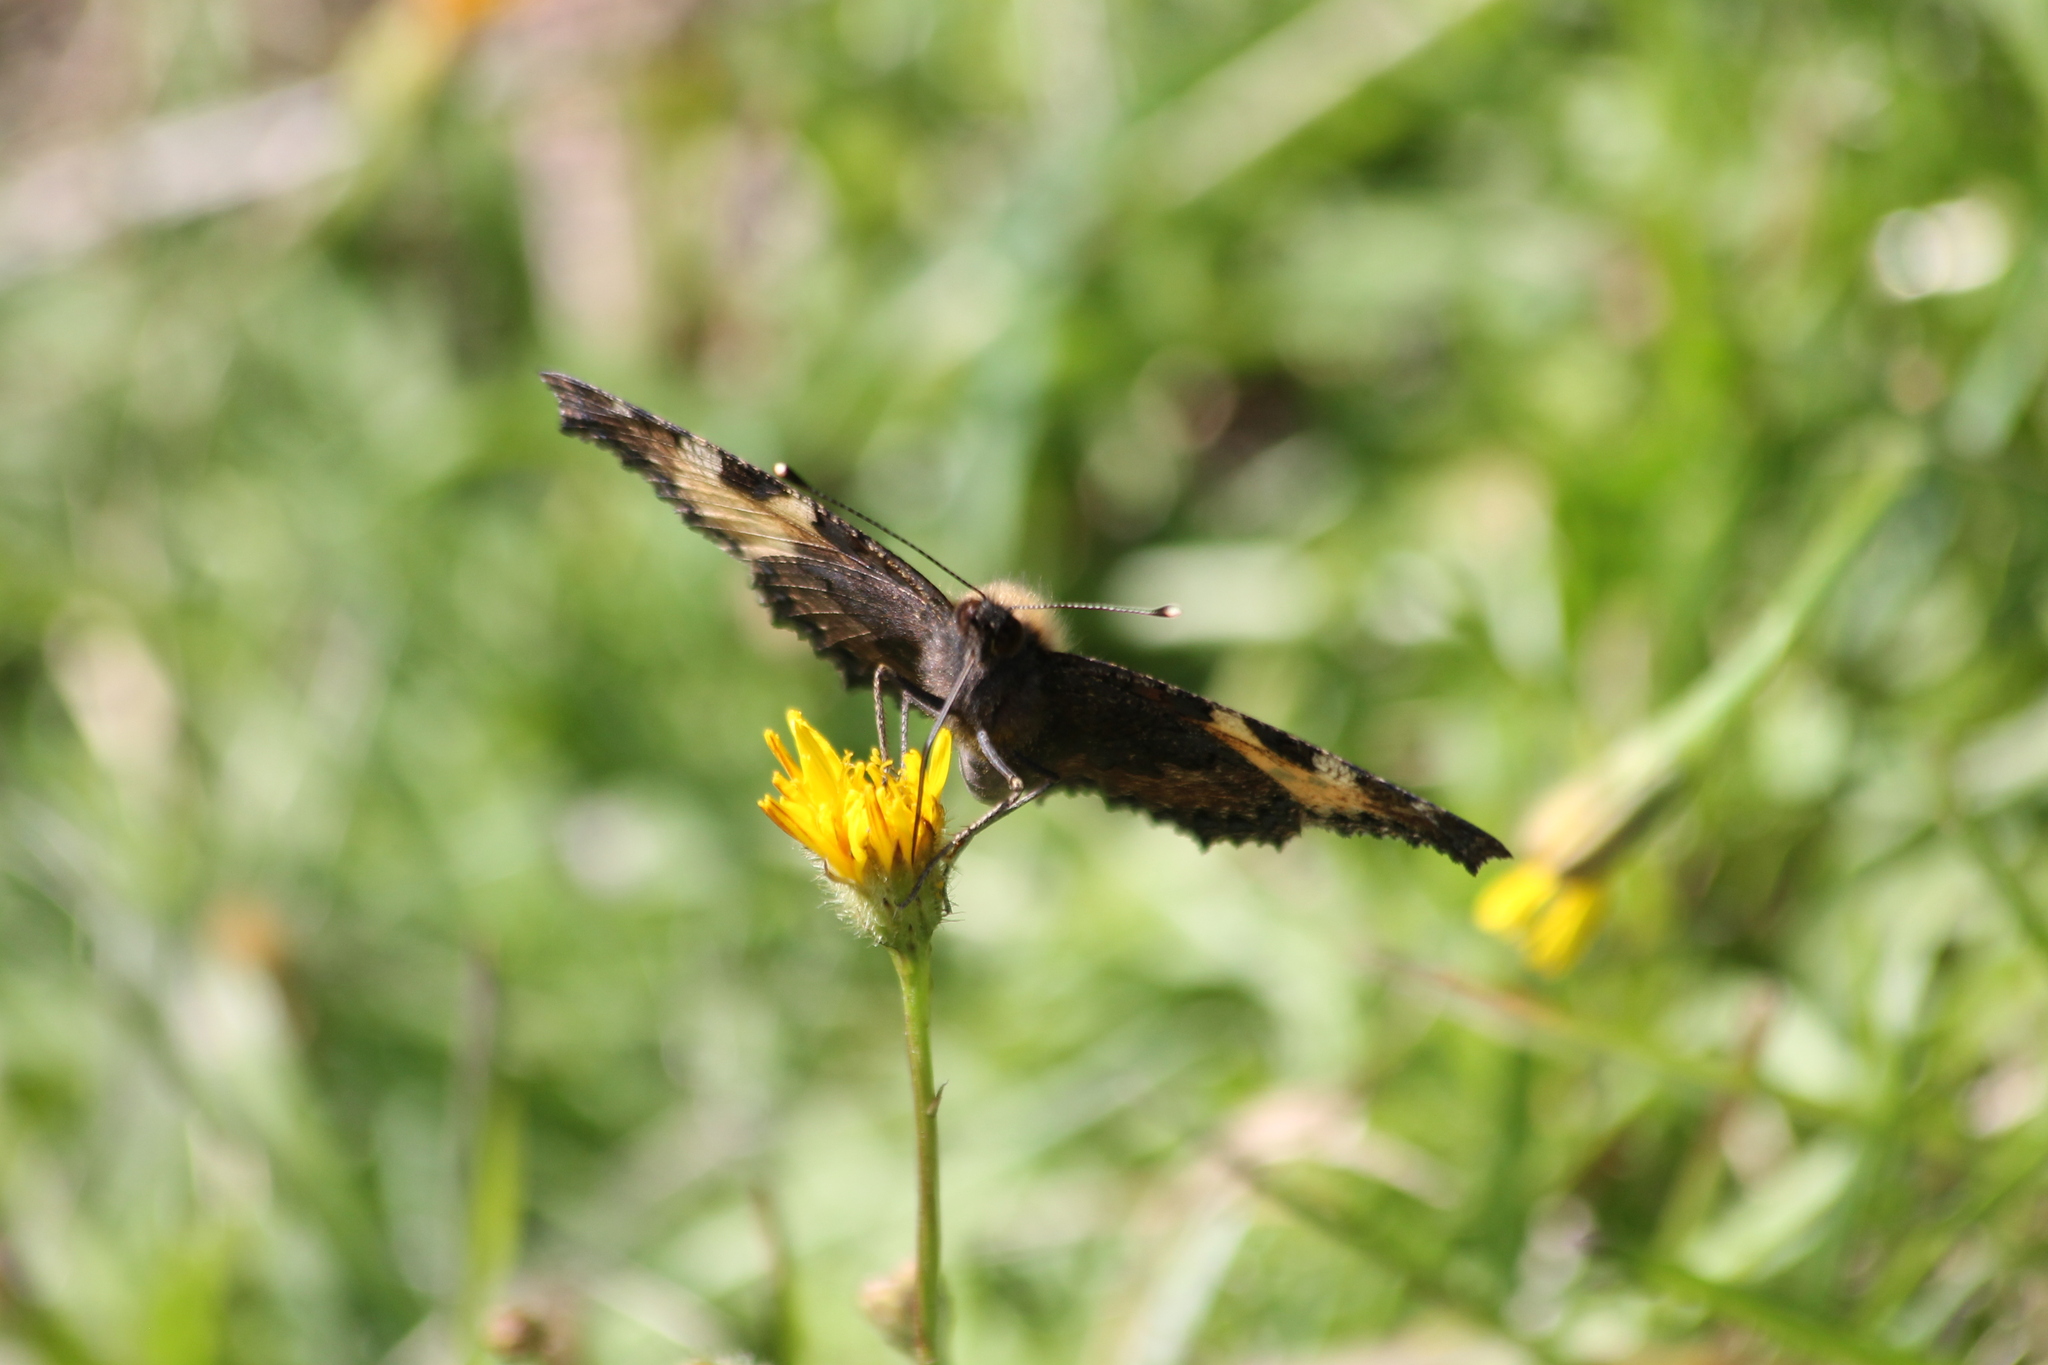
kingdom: Animalia
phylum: Arthropoda
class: Insecta
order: Lepidoptera
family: Nymphalidae
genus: Aglais
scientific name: Aglais urticae
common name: Small tortoiseshell
